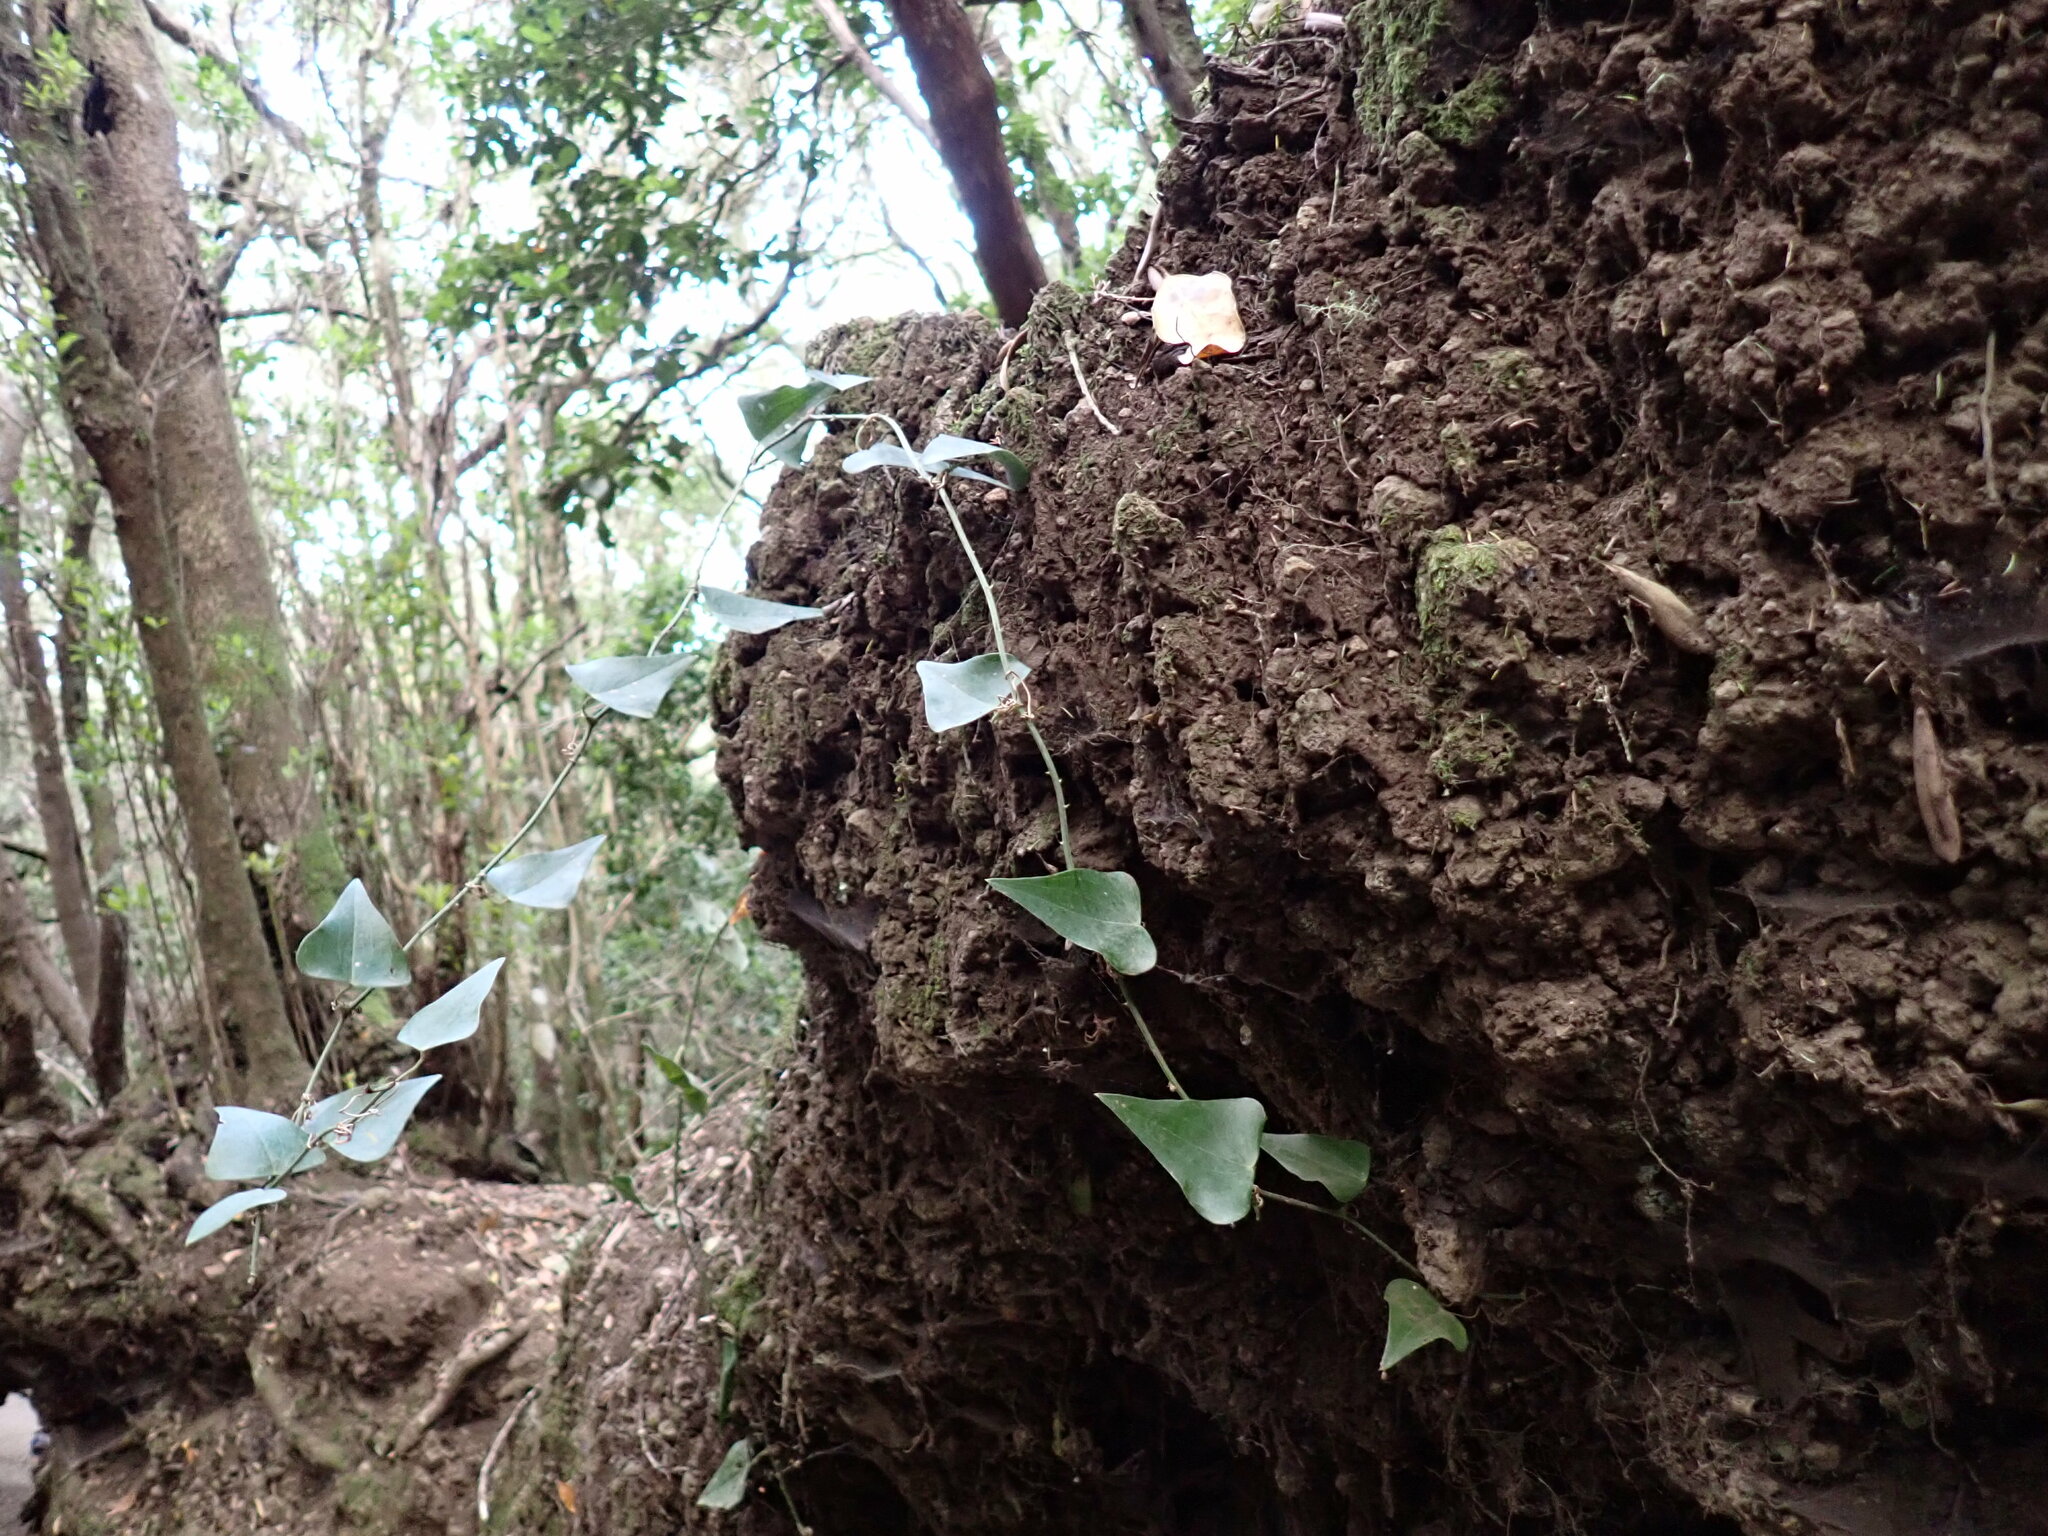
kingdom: Plantae
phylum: Tracheophyta
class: Liliopsida
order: Liliales
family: Smilacaceae
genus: Smilax
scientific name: Smilax aspera
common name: Common smilax
